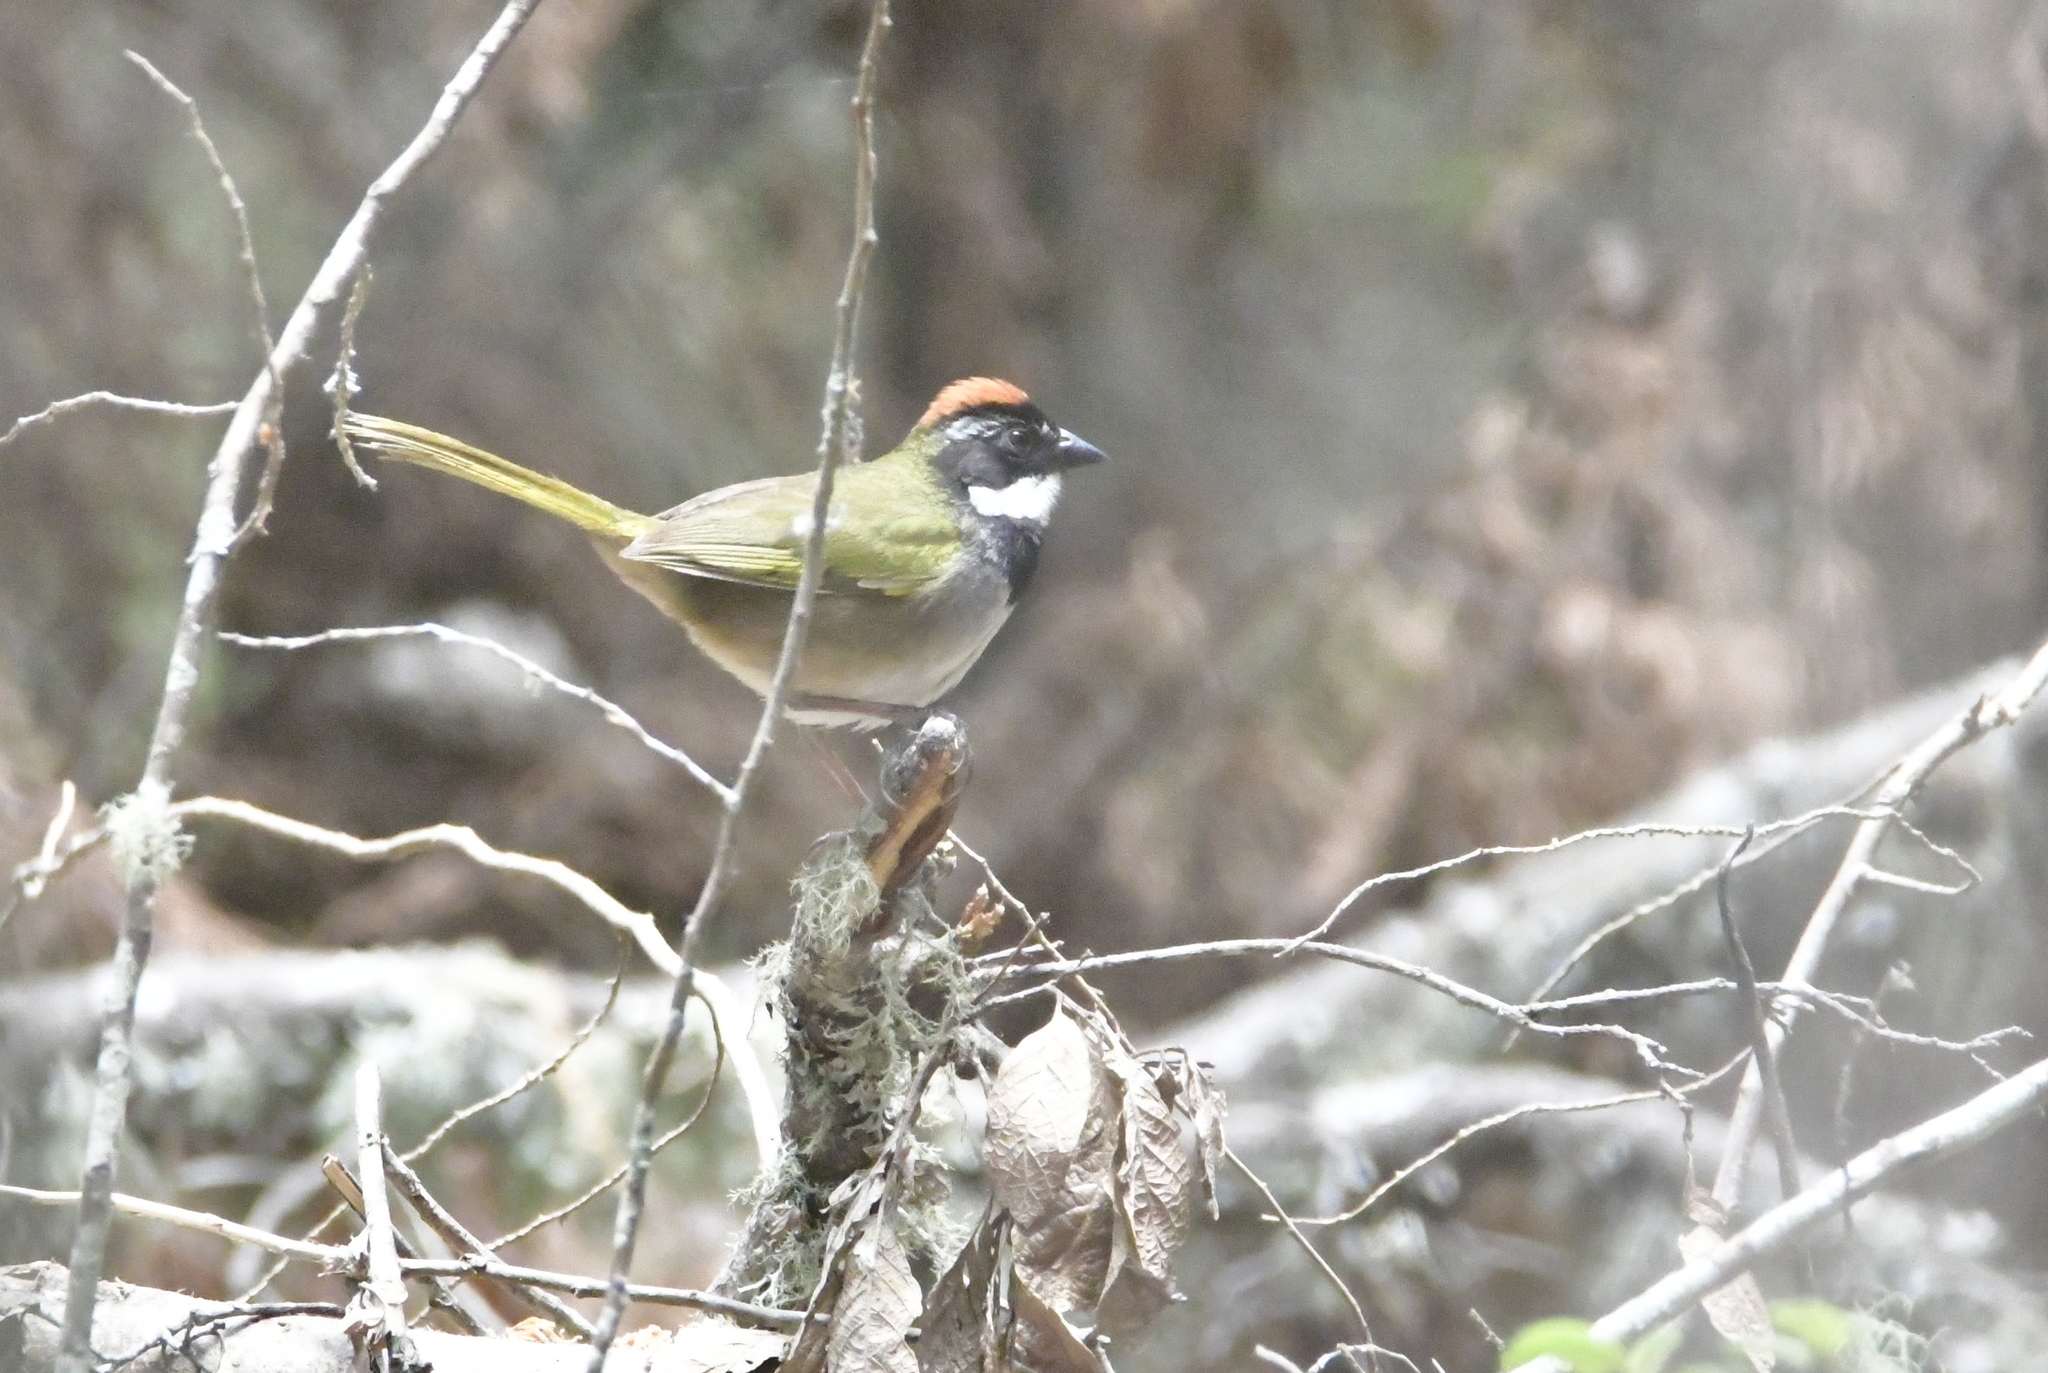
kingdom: Animalia
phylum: Chordata
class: Aves
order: Passeriformes
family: Passerellidae
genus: Pipilo
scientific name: Pipilo ocai
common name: Collared towhee
